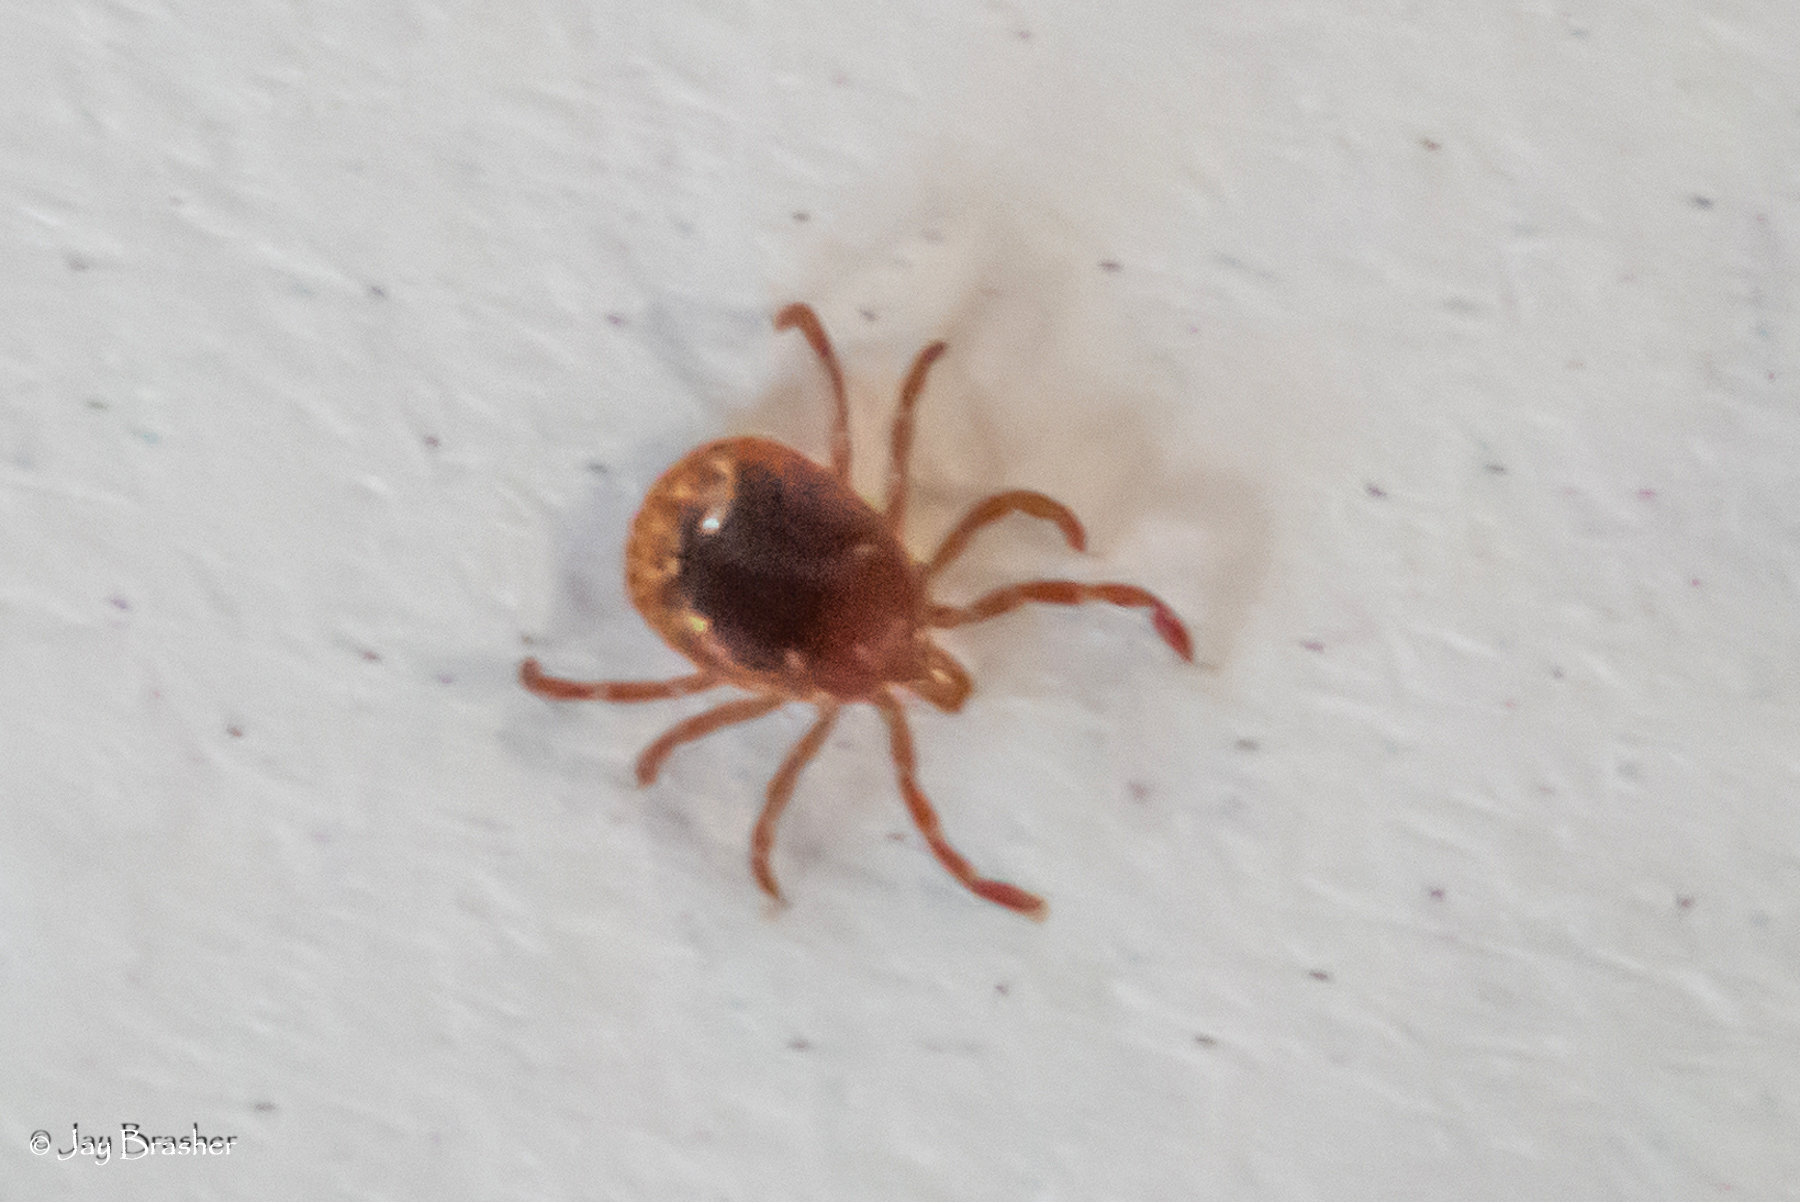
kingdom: Animalia
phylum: Arthropoda
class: Arachnida
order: Ixodida
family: Ixodidae
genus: Amblyomma
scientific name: Amblyomma americanum
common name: Lone star tick
